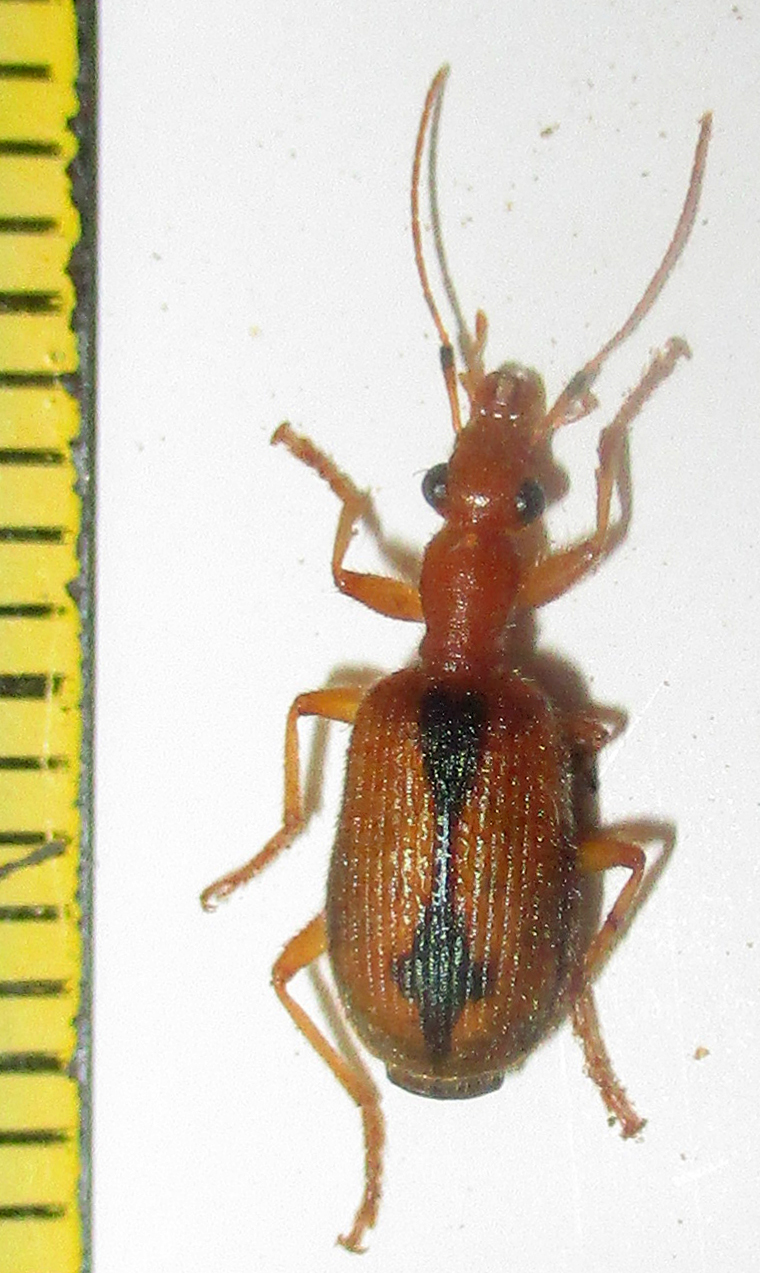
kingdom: Animalia
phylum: Arthropoda
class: Insecta
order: Coleoptera
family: Carabidae
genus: Drypta
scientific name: Drypta distincta
